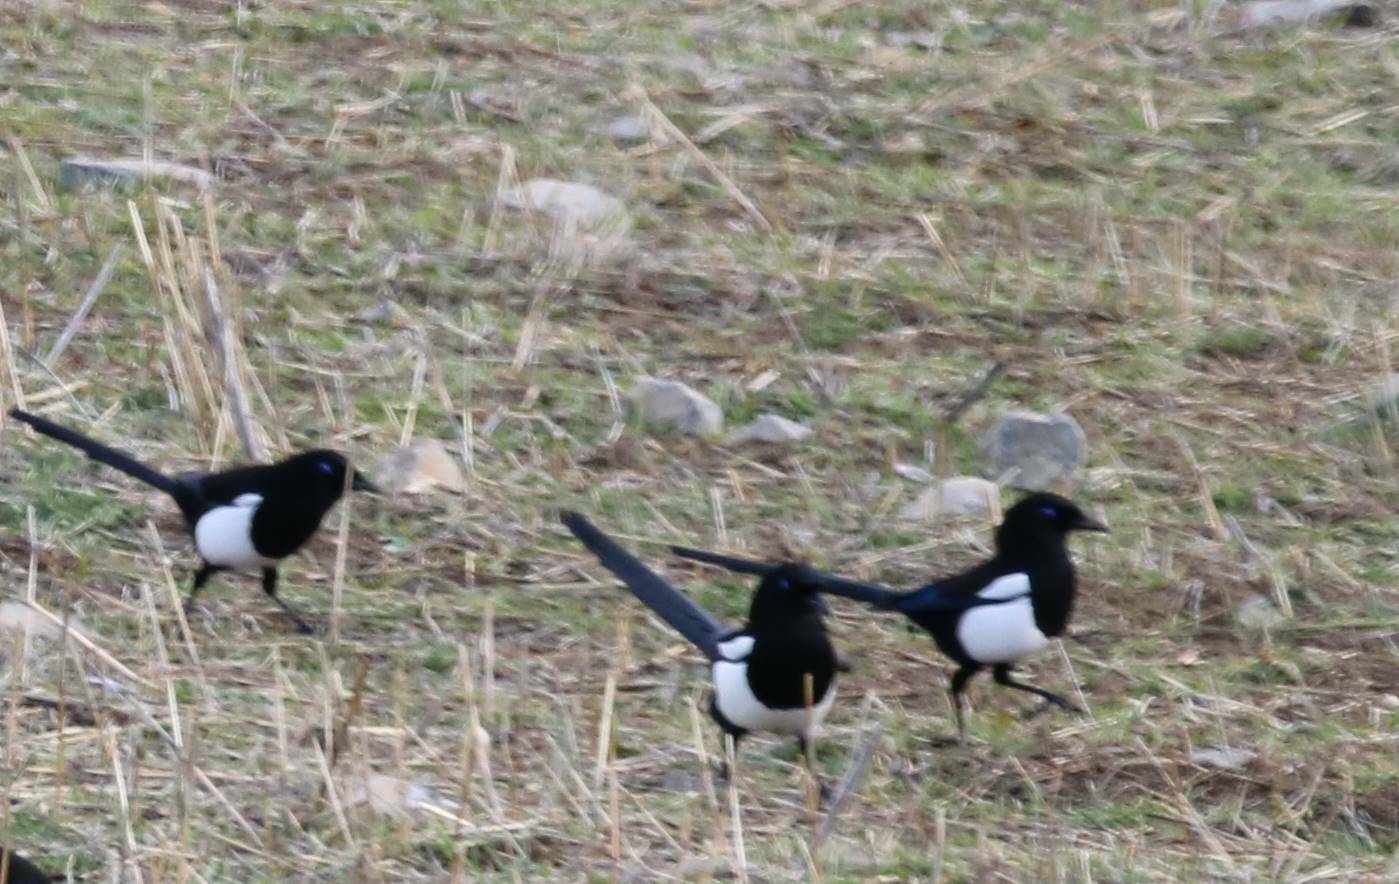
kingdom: Animalia
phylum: Chordata
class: Aves
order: Passeriformes
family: Corvidae
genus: Pica
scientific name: Pica mauritanica
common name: Maghreb magpie
